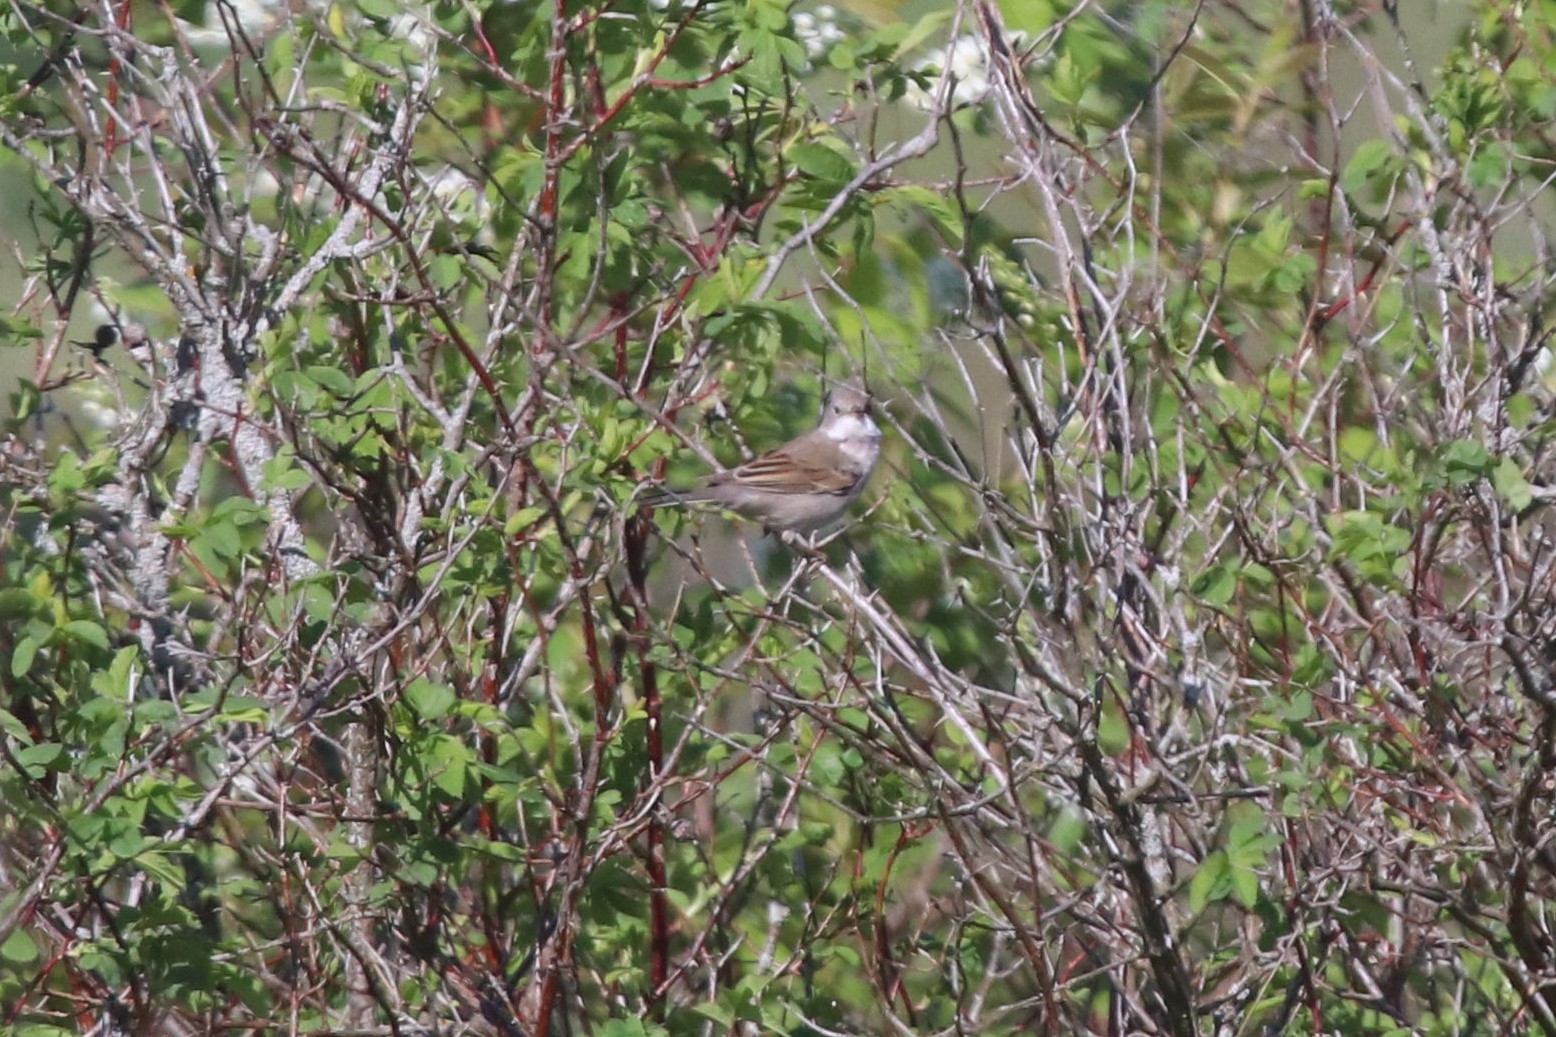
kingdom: Animalia
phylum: Chordata
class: Aves
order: Passeriformes
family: Sylviidae
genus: Sylvia
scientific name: Sylvia communis
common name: Common whitethroat
